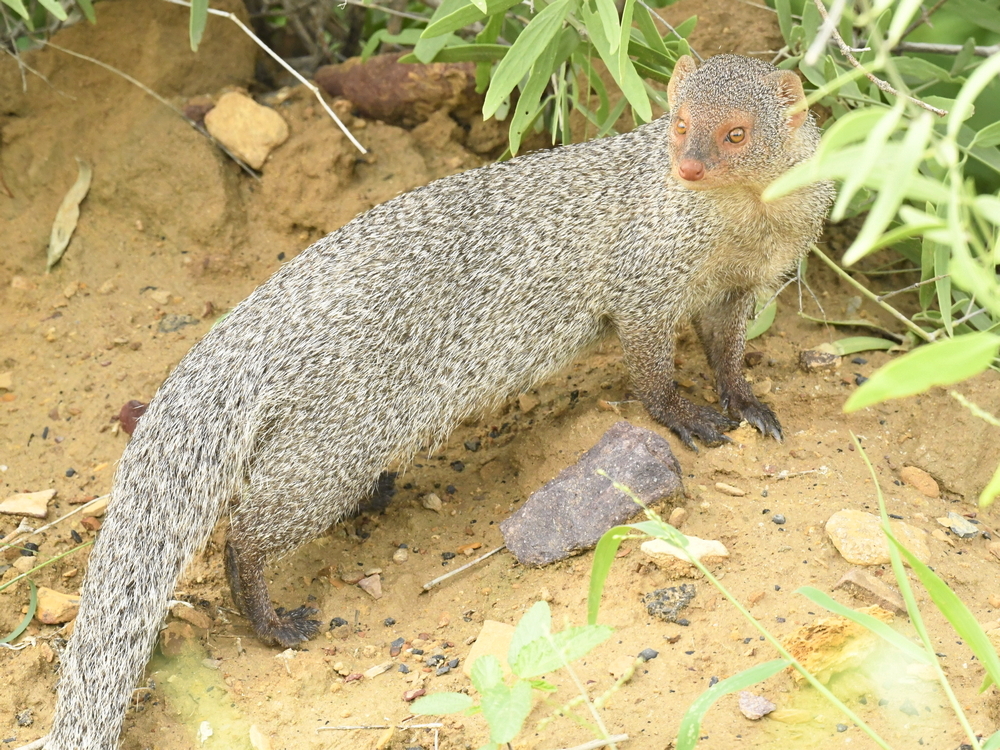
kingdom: Animalia
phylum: Chordata
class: Mammalia
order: Carnivora
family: Herpestidae
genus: Herpestes
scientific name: Herpestes edwardsi
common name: Indian gray mongoose
